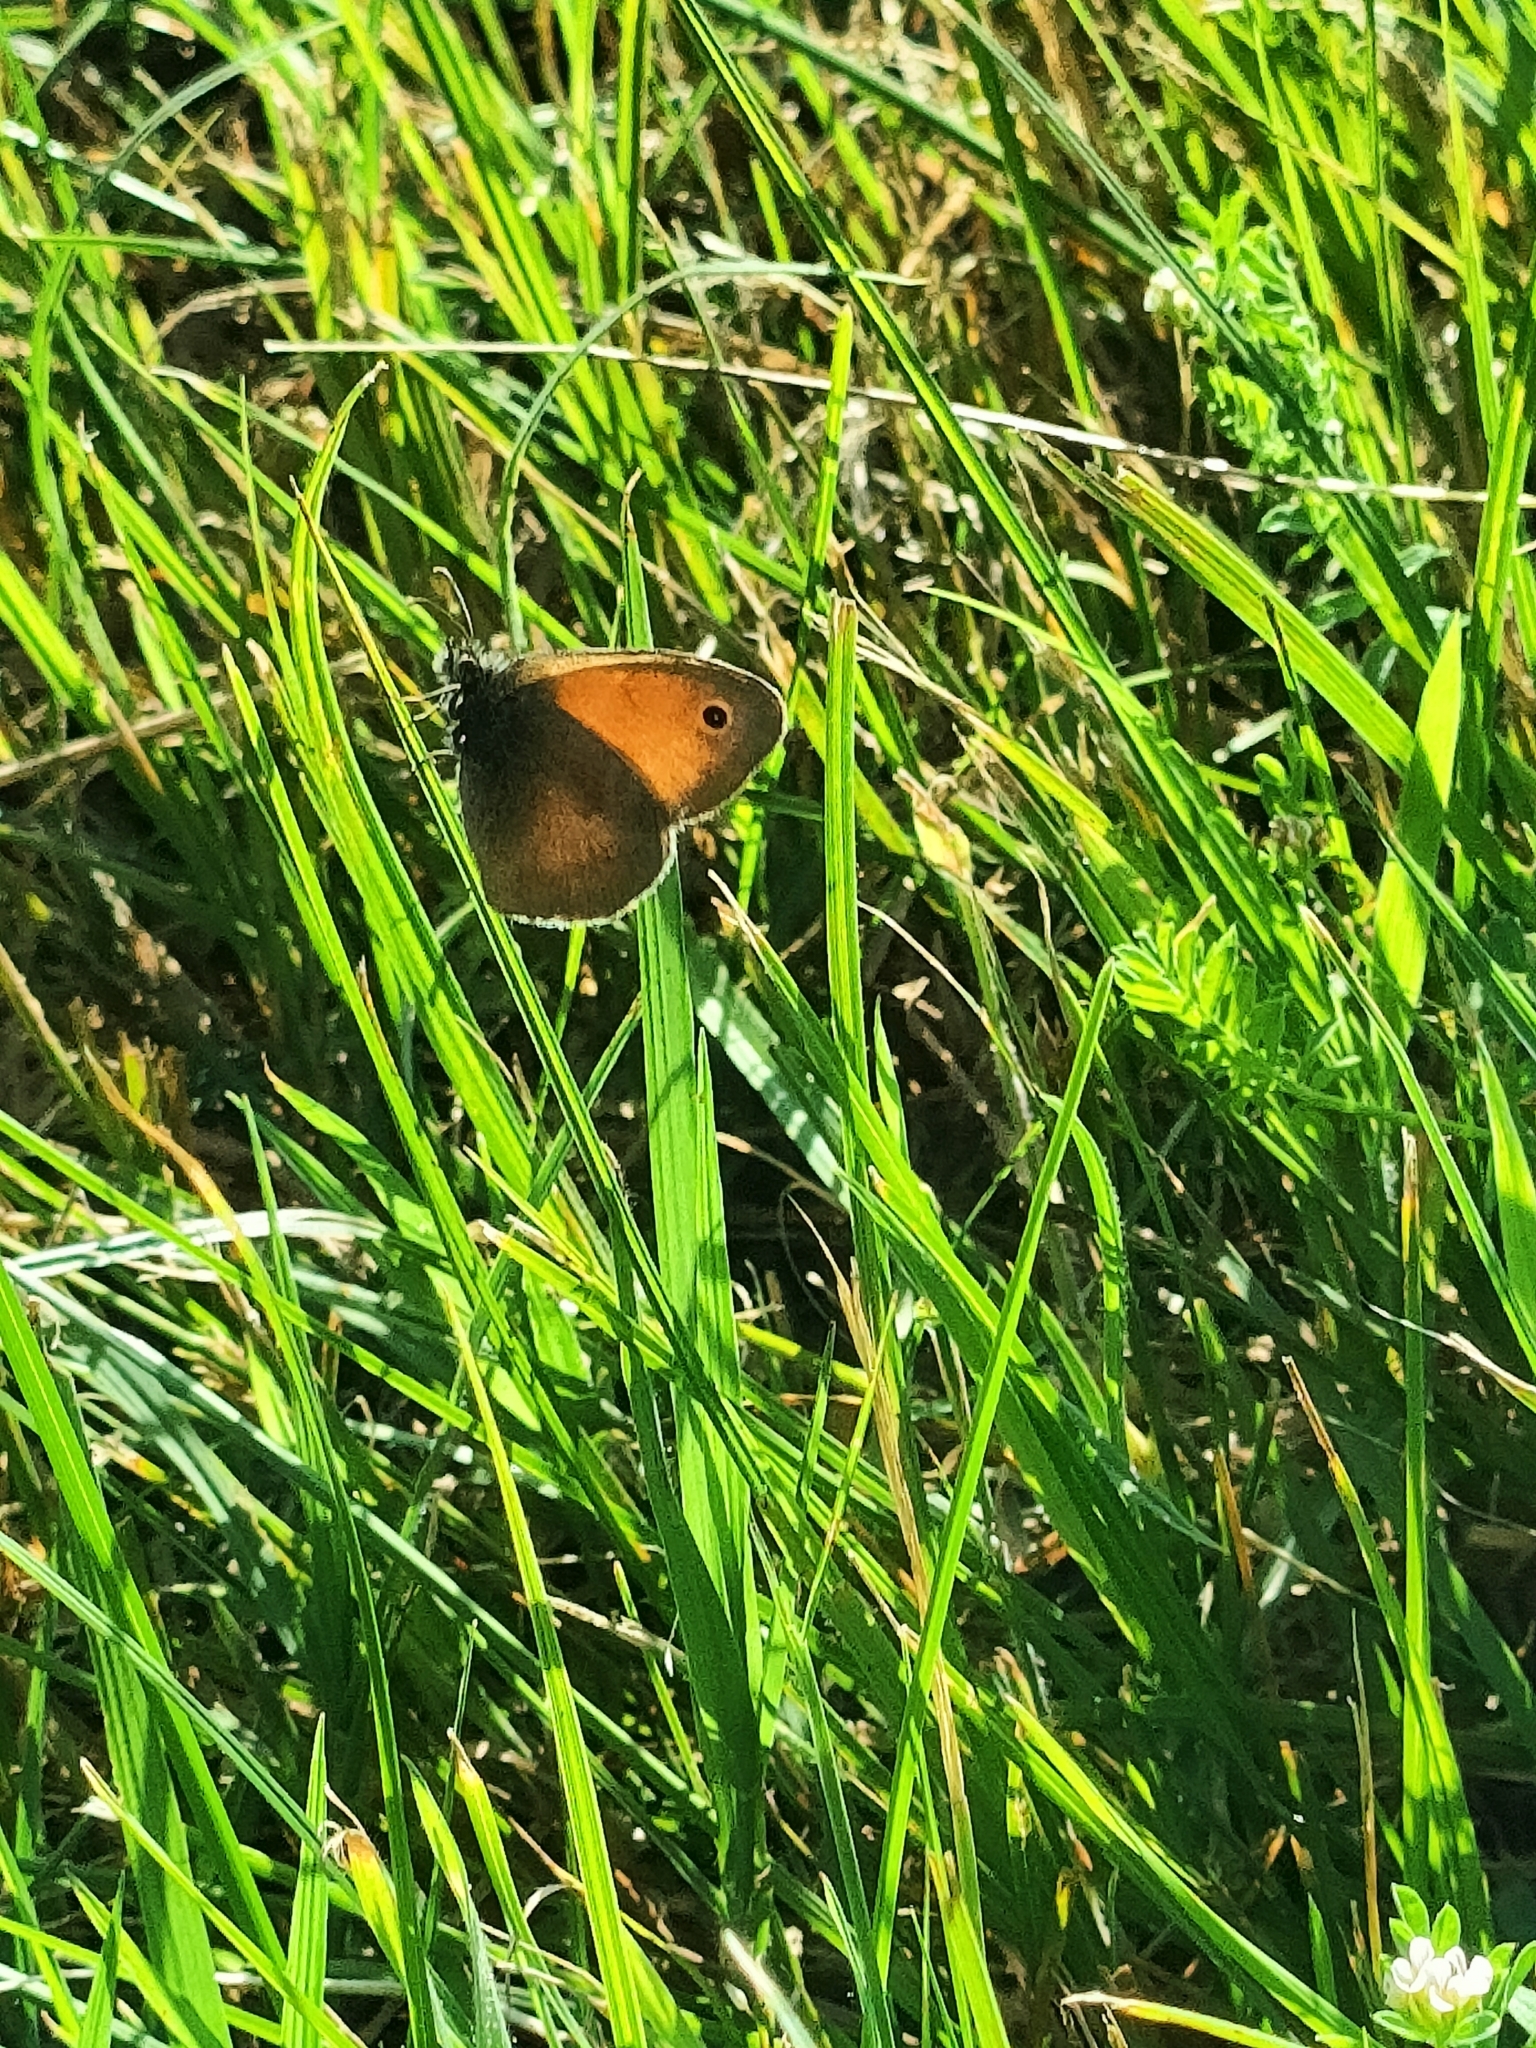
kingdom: Animalia
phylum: Arthropoda
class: Insecta
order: Lepidoptera
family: Nymphalidae
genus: Coenonympha
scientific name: Coenonympha pamphilus
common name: Small heath
